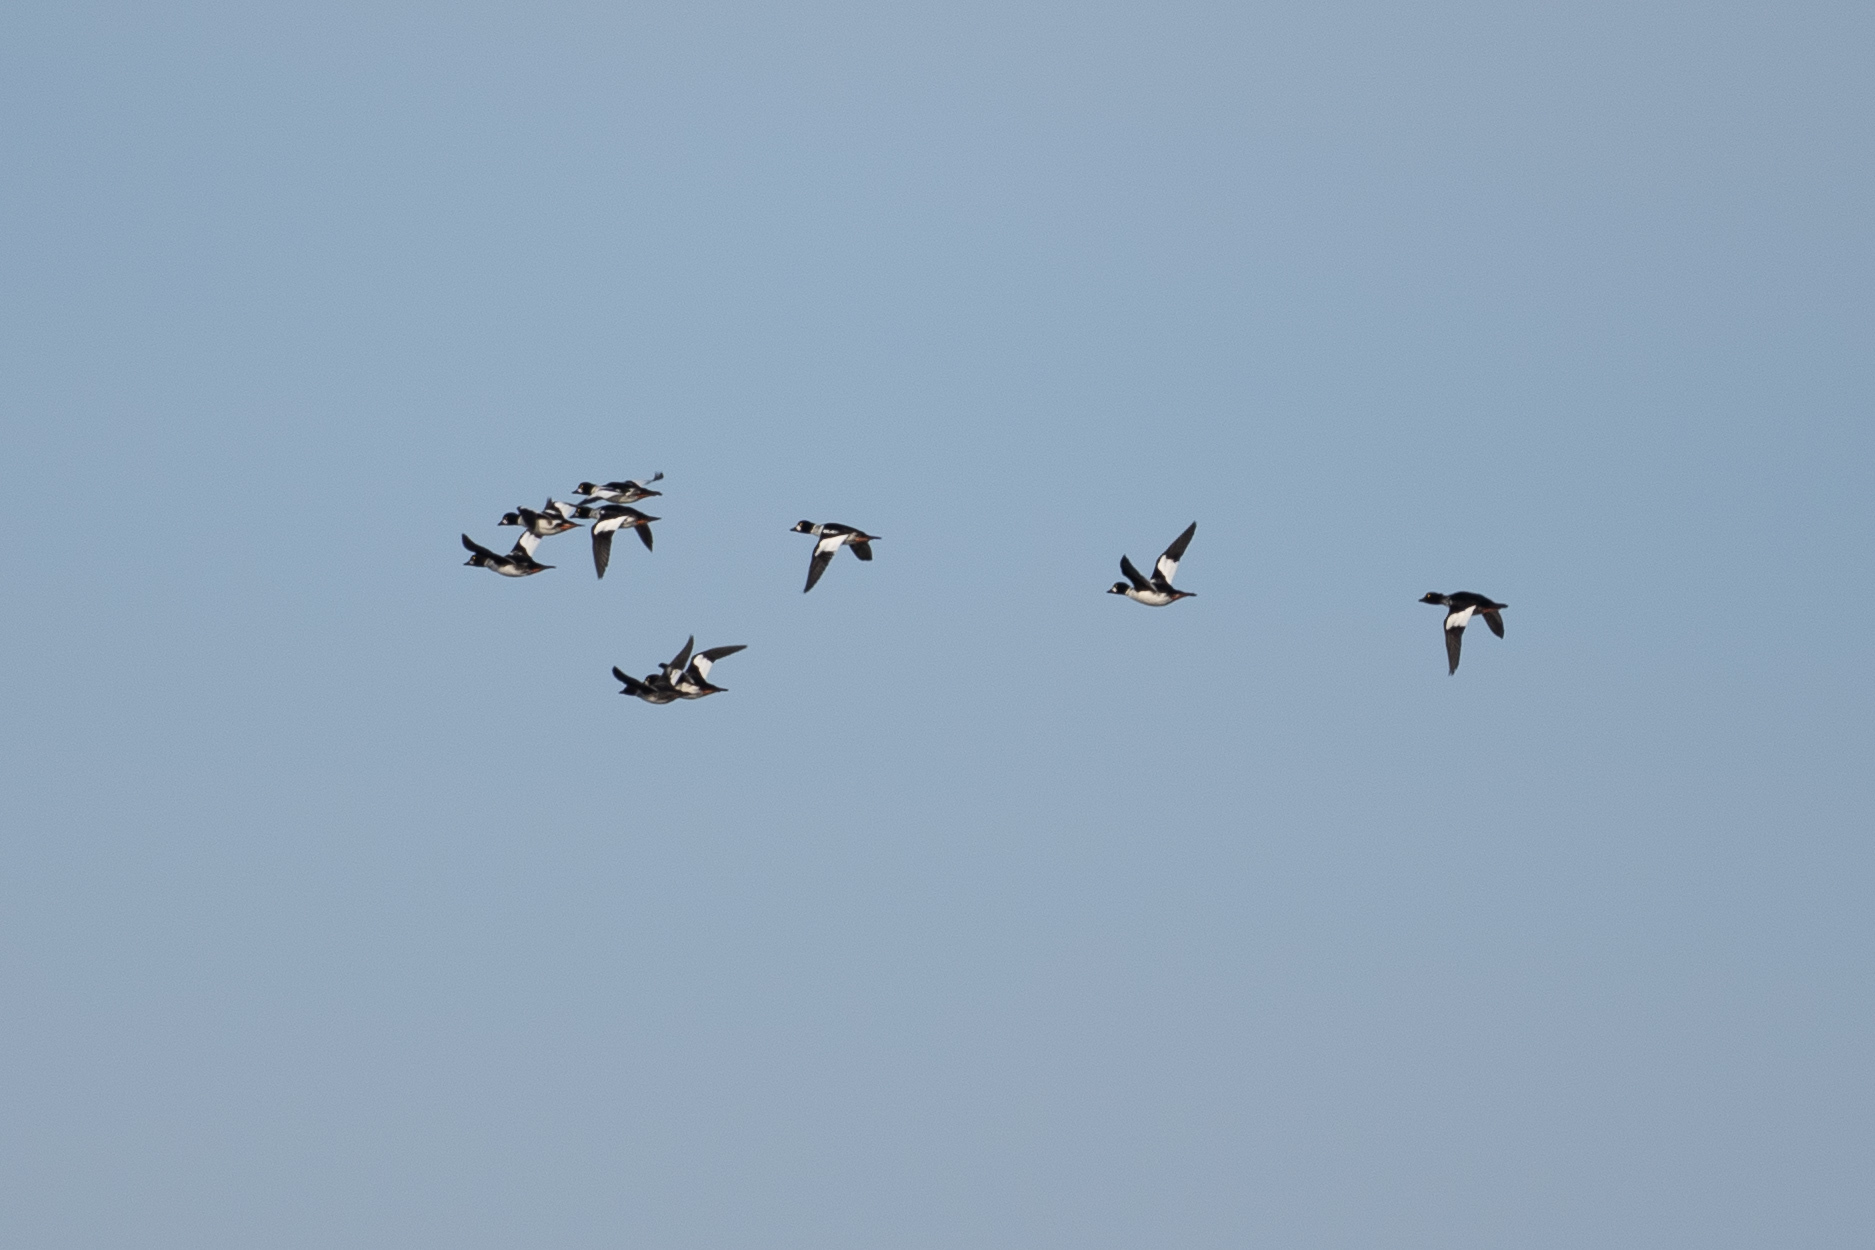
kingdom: Animalia
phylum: Chordata
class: Aves
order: Anseriformes
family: Anatidae
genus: Bucephala
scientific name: Bucephala clangula
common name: Common goldeneye
